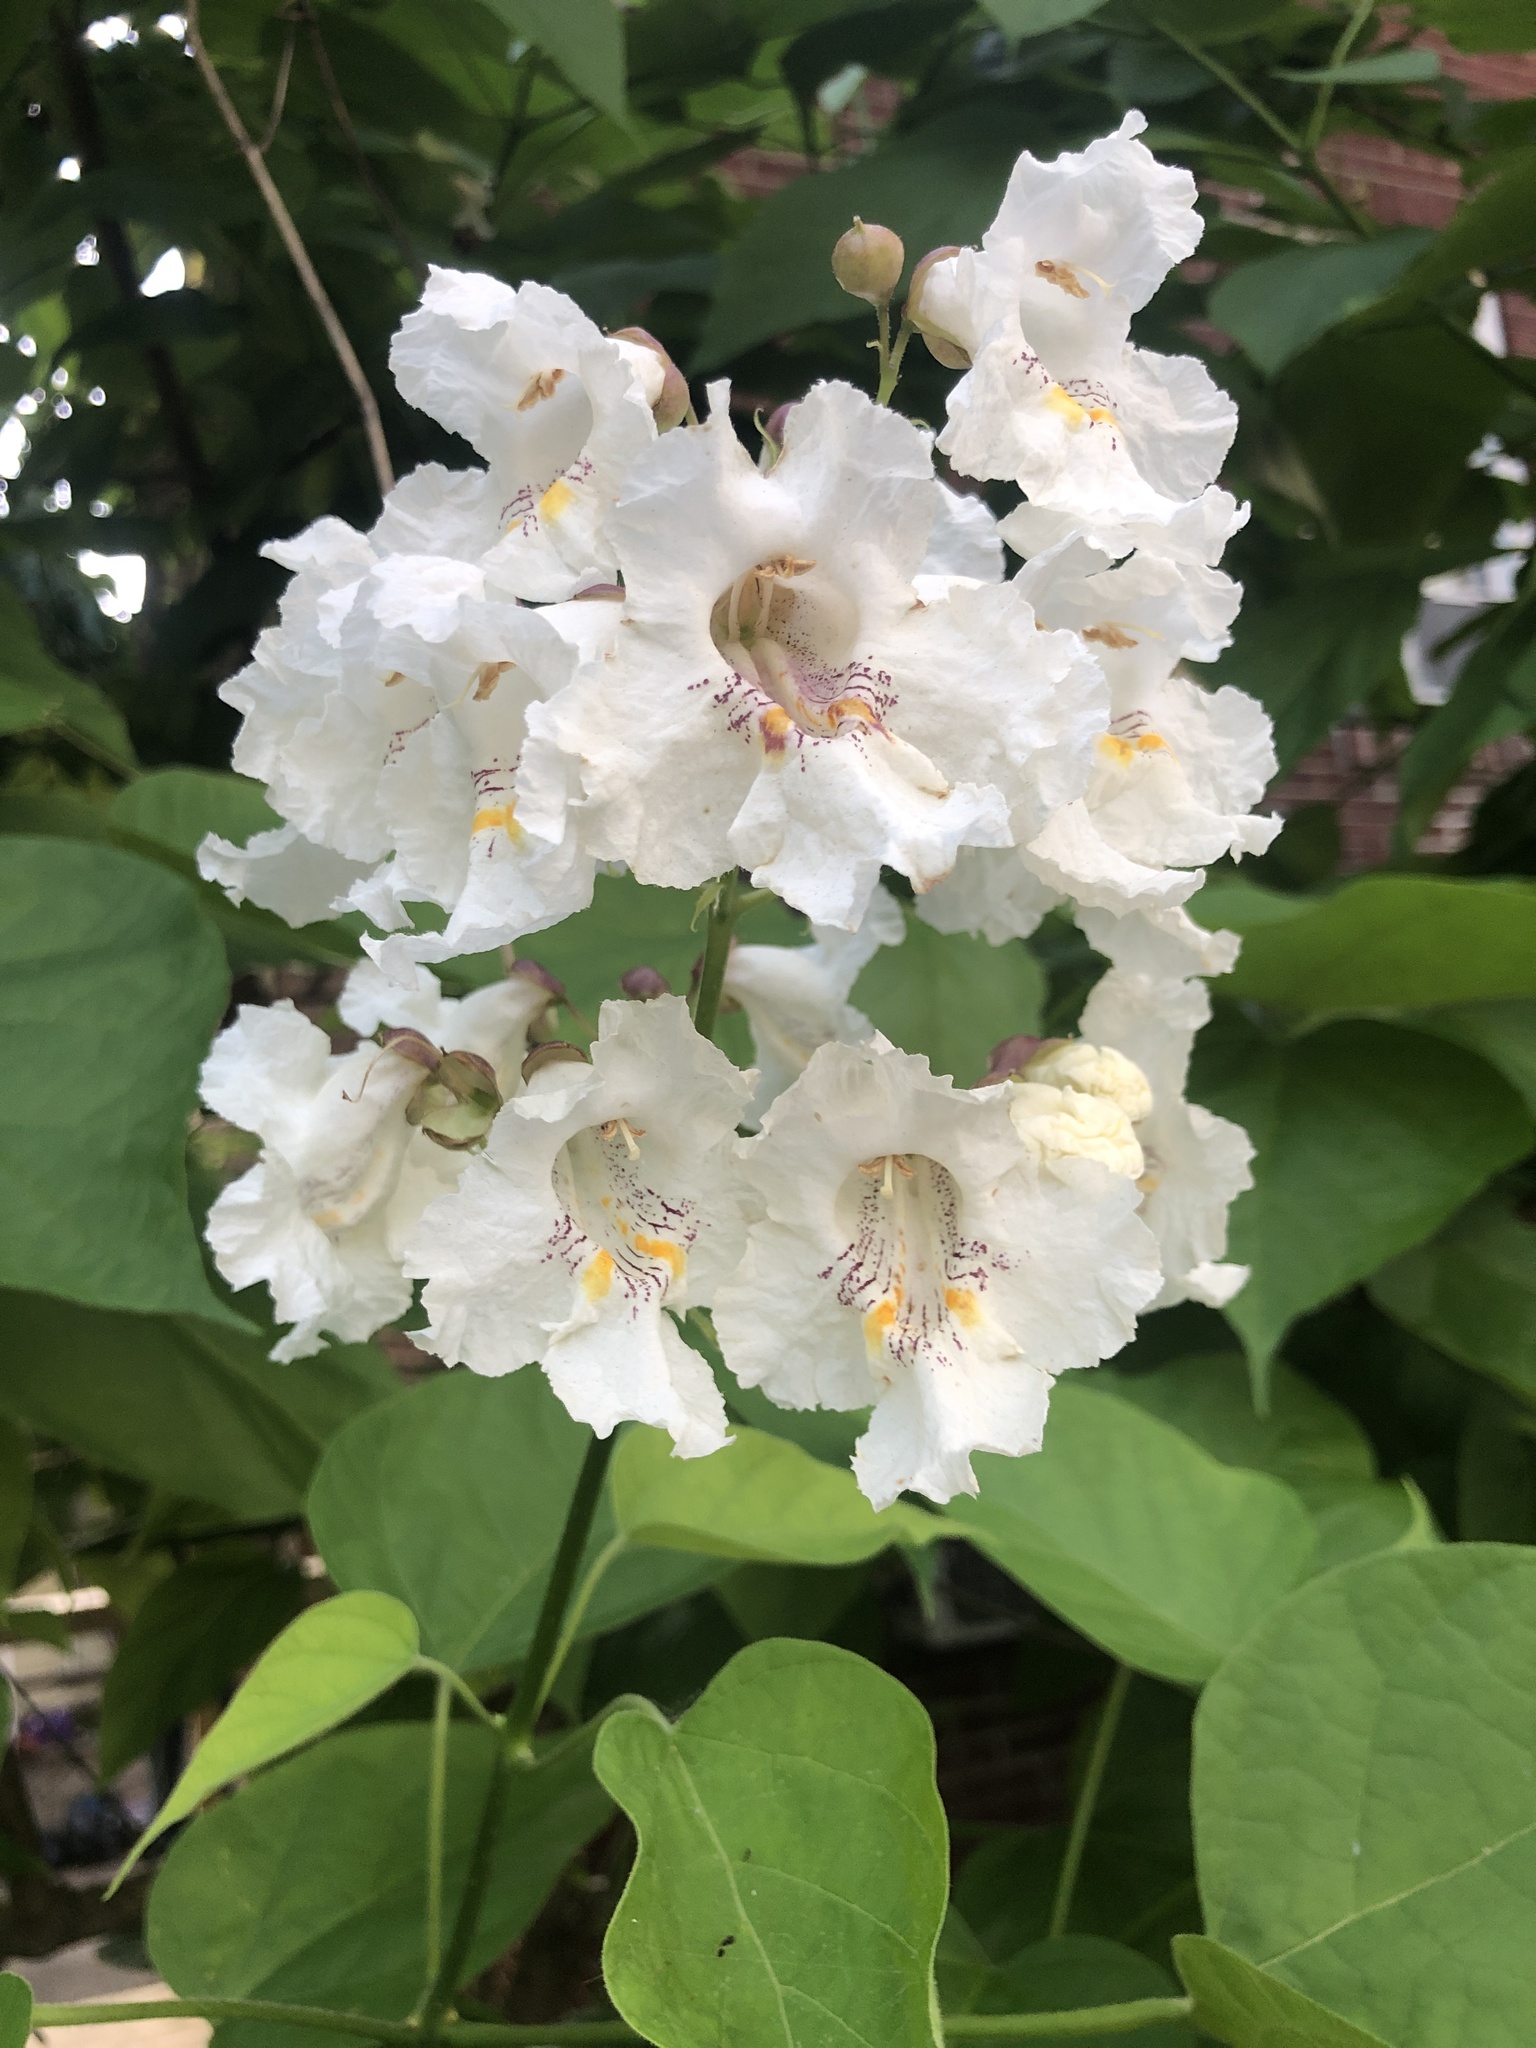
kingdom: Plantae
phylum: Tracheophyta
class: Magnoliopsida
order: Lamiales
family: Bignoniaceae
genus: Catalpa
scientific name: Catalpa speciosa
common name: Northern catalpa
